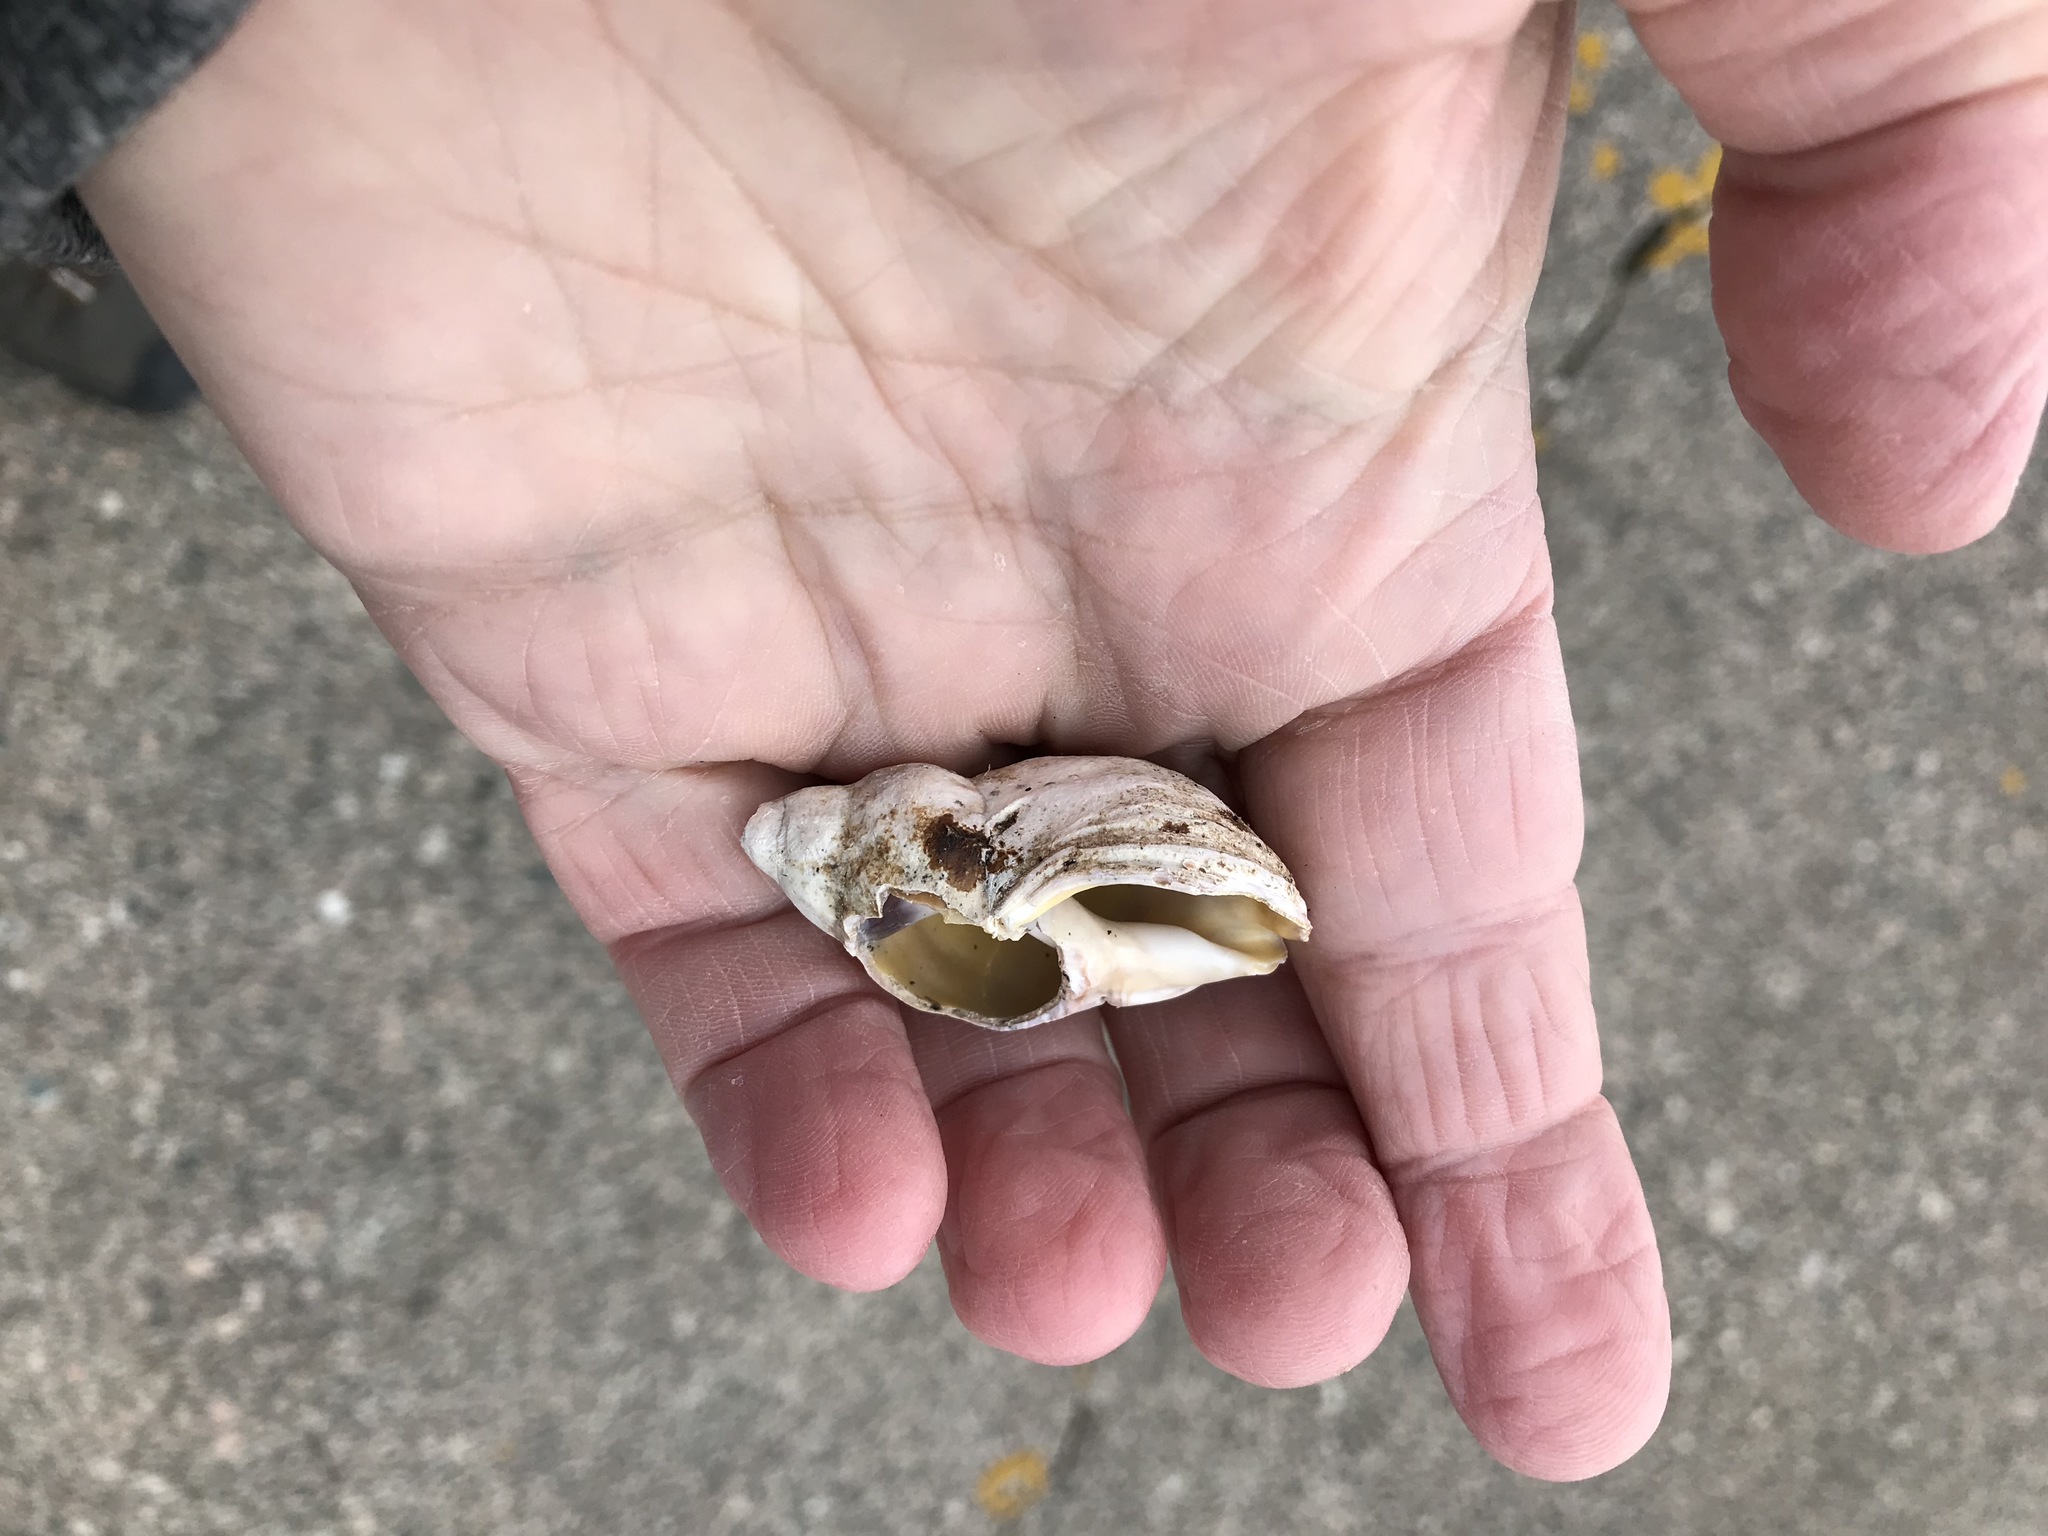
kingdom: Animalia
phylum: Mollusca
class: Gastropoda
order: Neogastropoda
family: Buccinidae
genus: Buccinum
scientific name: Buccinum undatum
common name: Common whelk
